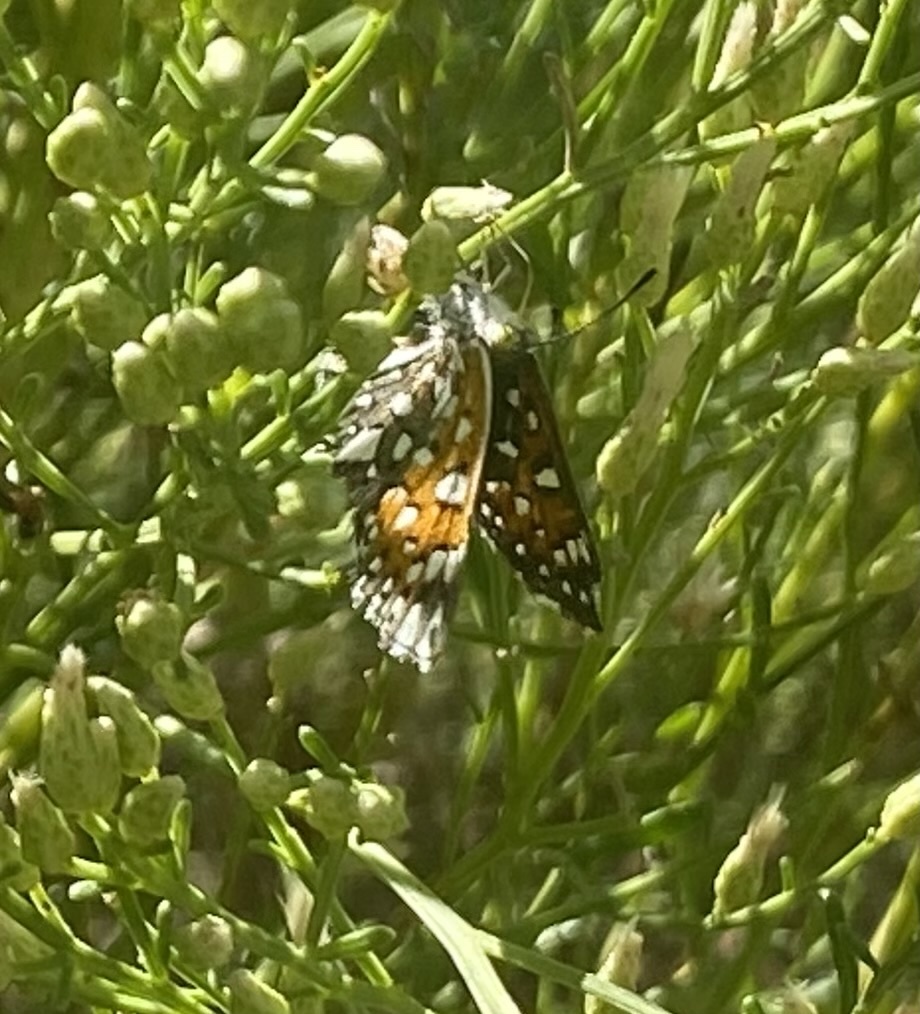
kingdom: Animalia
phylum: Arthropoda
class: Insecta
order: Lepidoptera
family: Riodinidae
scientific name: Riodinidae
